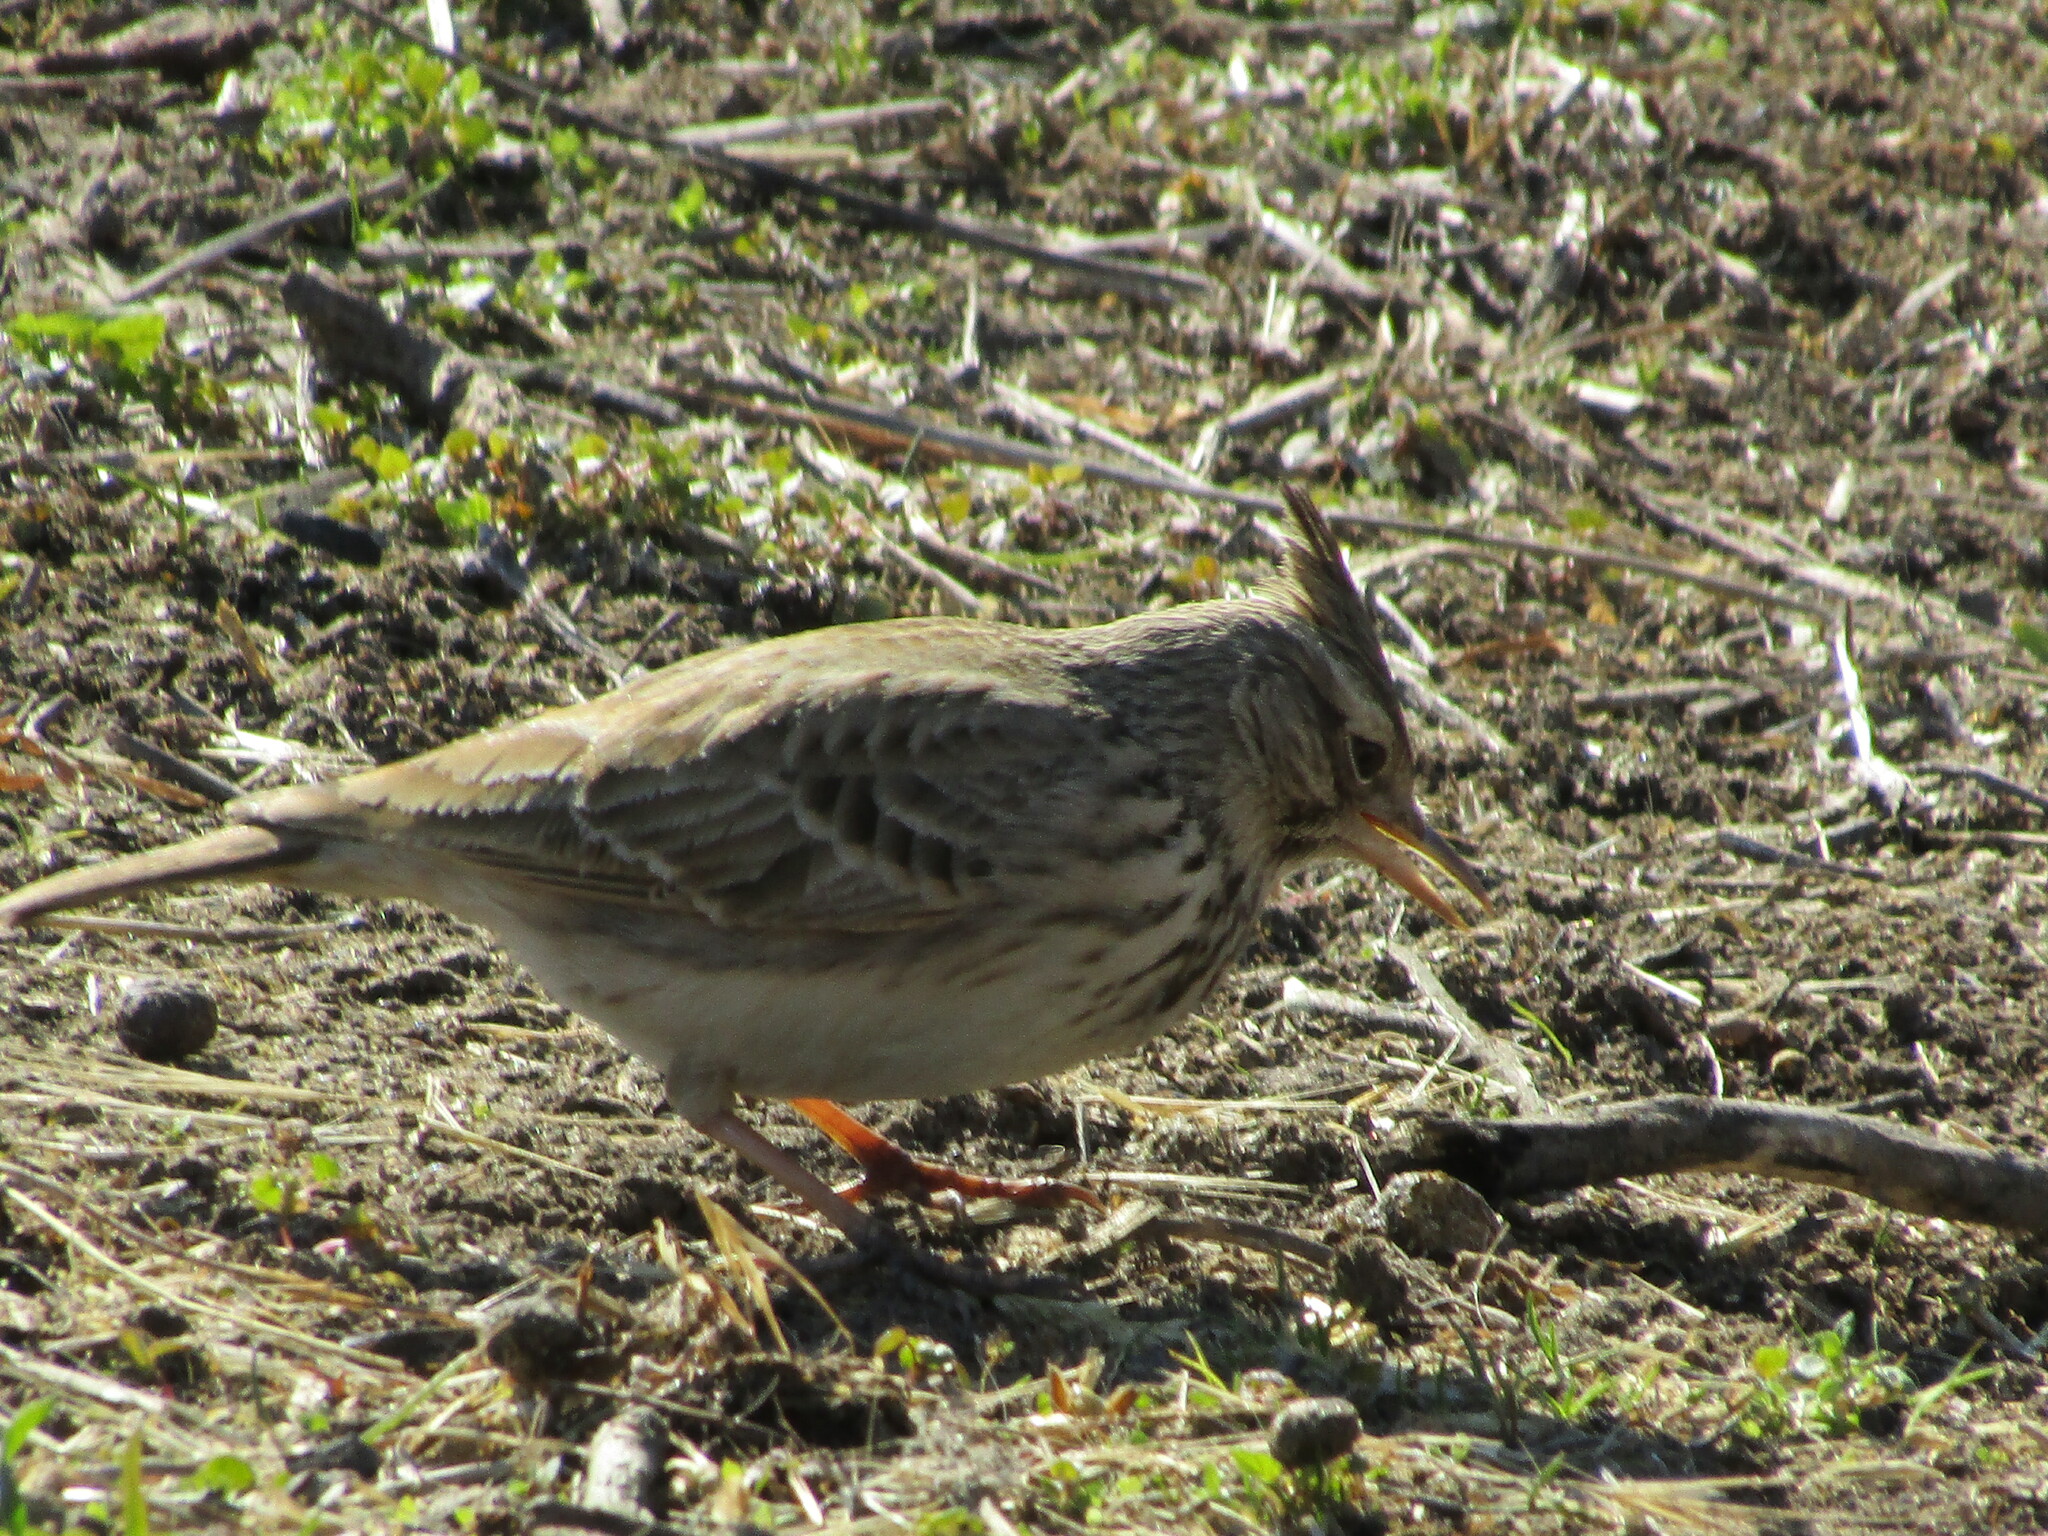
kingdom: Animalia
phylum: Chordata
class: Aves
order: Passeriformes
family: Alaudidae
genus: Galerida
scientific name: Galerida cristata
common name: Crested lark
